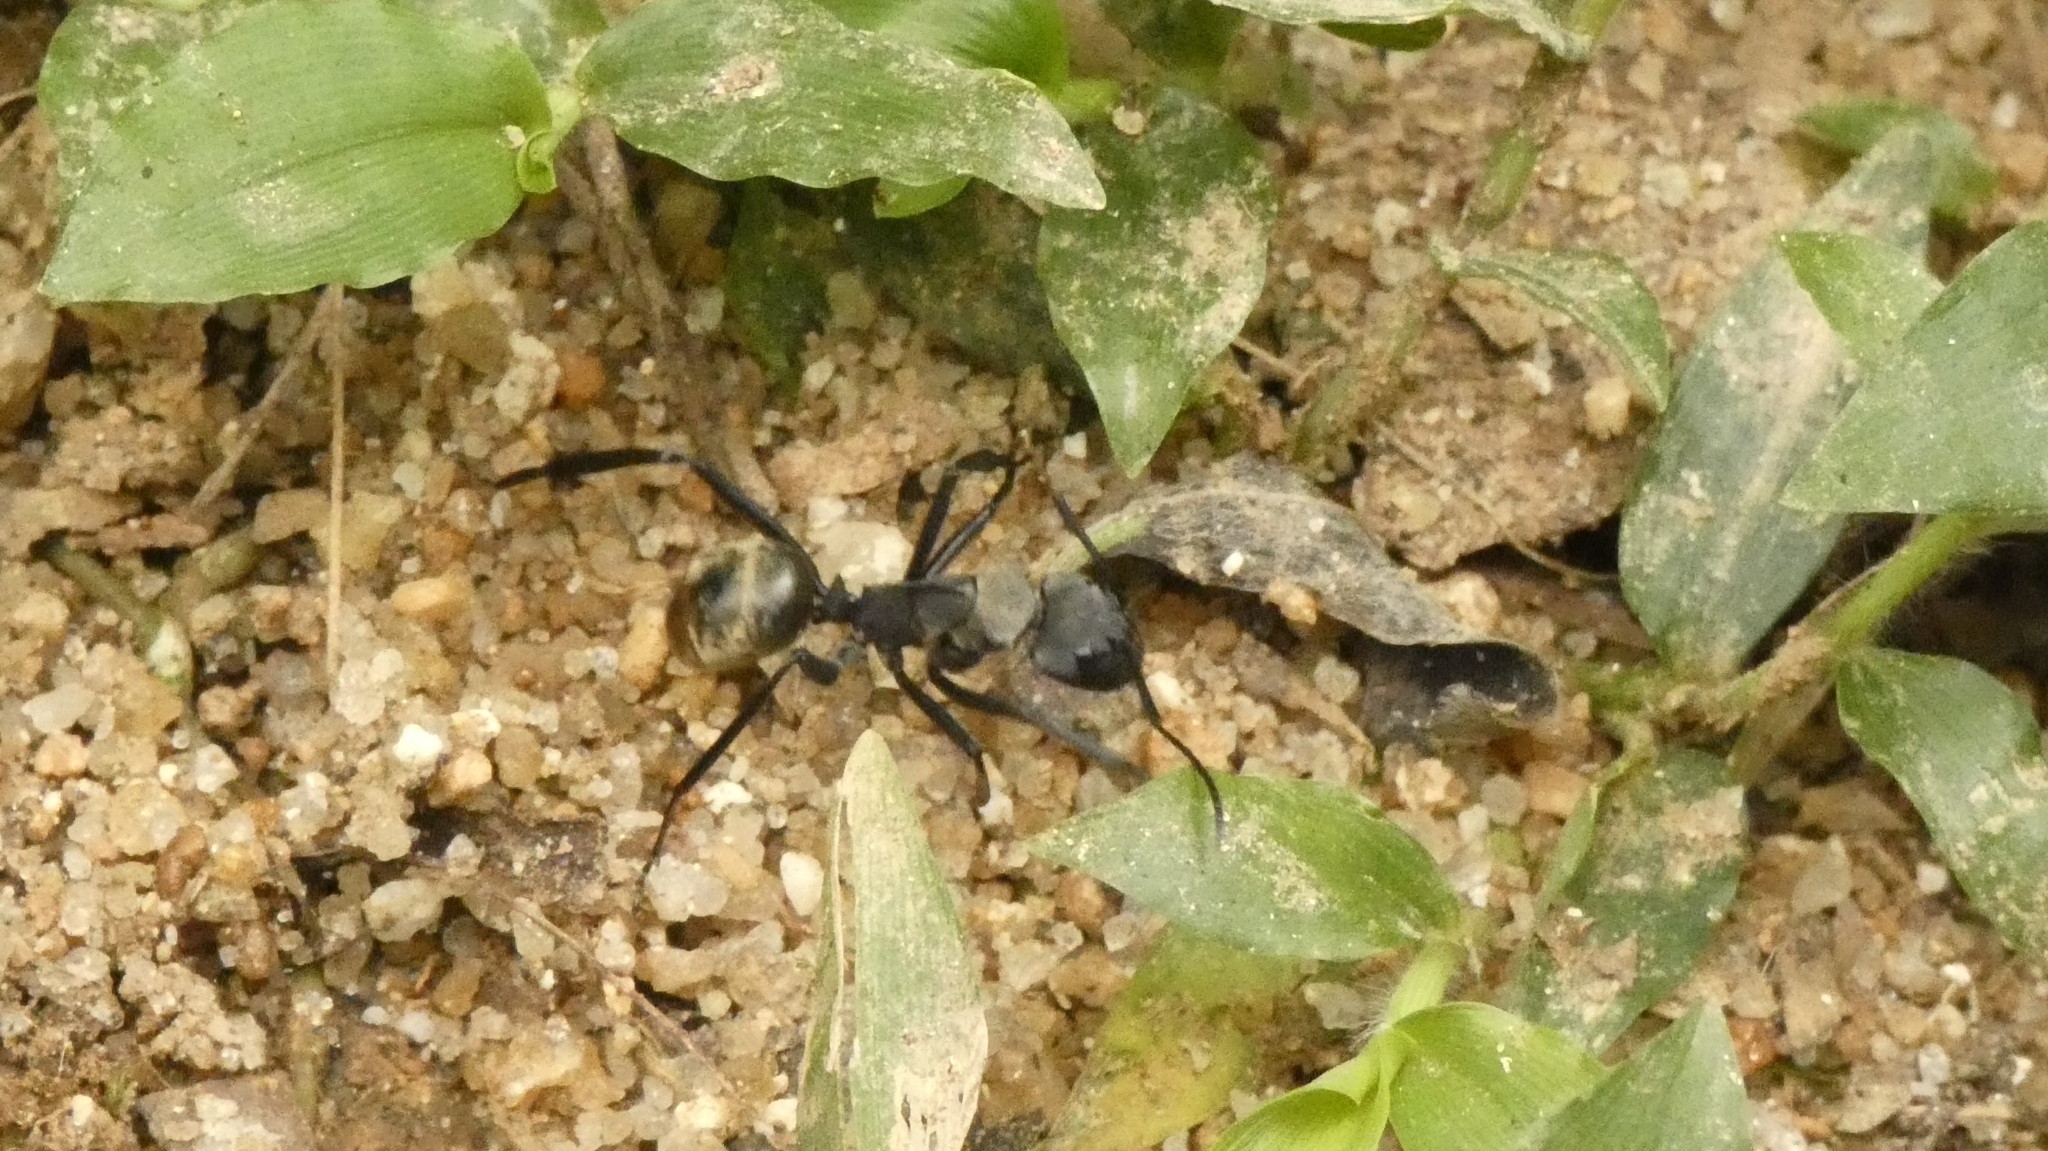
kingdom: Animalia
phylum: Arthropoda
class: Insecta
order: Hymenoptera
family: Formicidae
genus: Camponotus
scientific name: Camponotus sericeiventris
